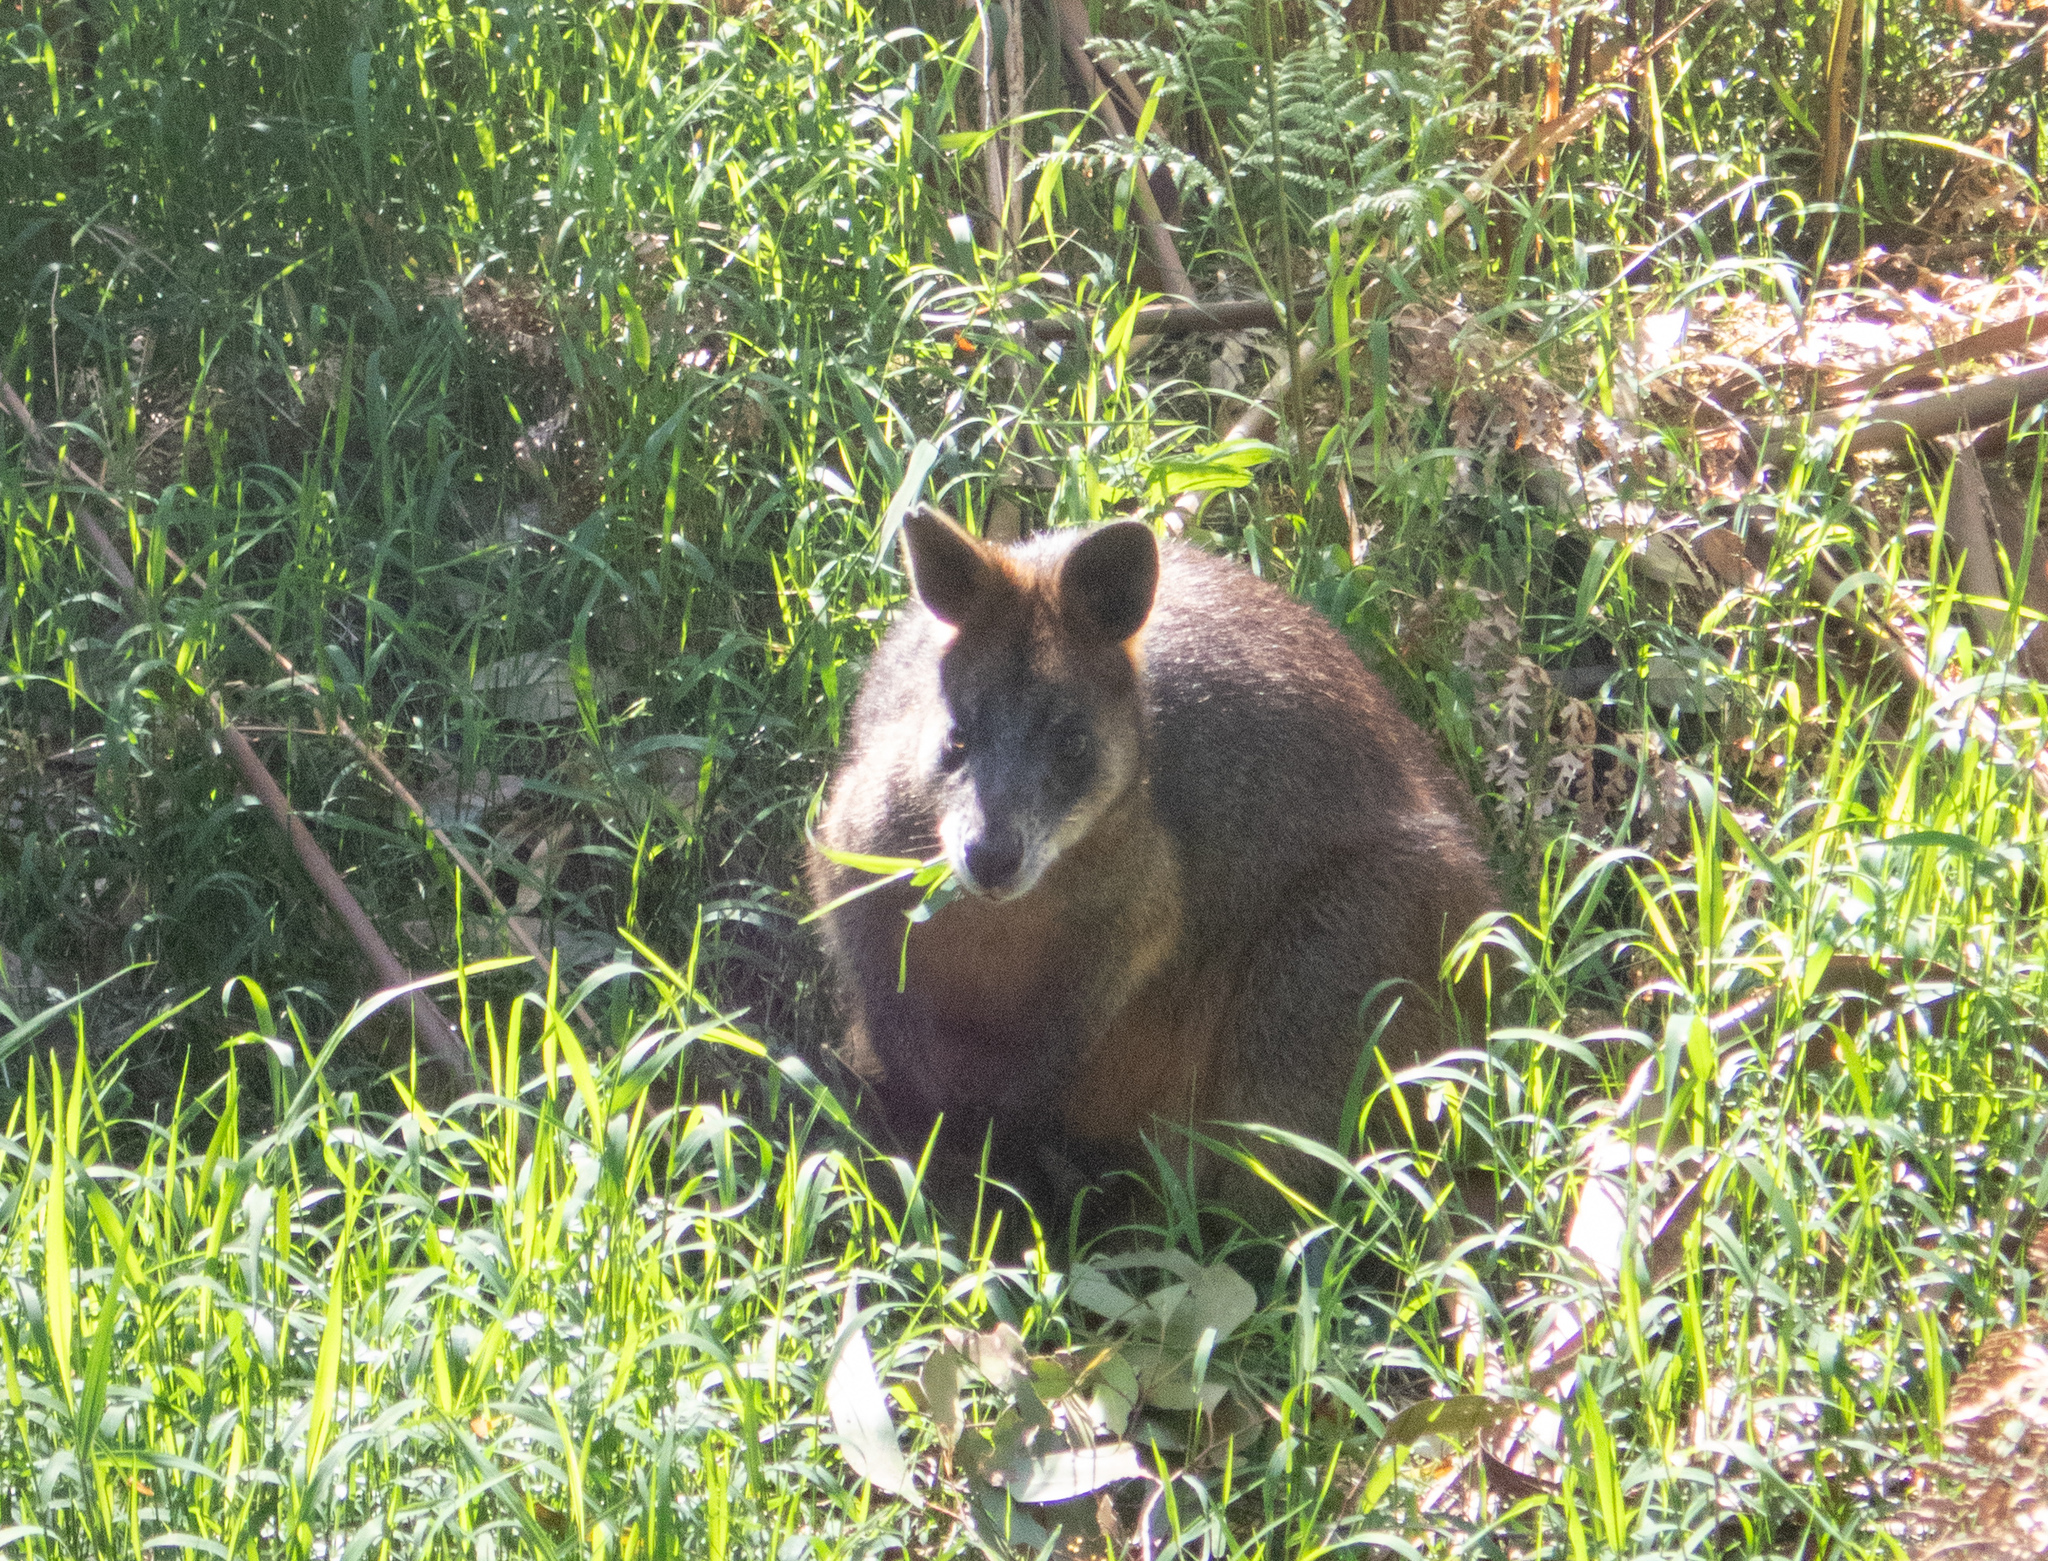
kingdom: Animalia
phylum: Chordata
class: Mammalia
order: Diprotodontia
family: Macropodidae
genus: Wallabia
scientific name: Wallabia bicolor
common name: Swamp wallaby
